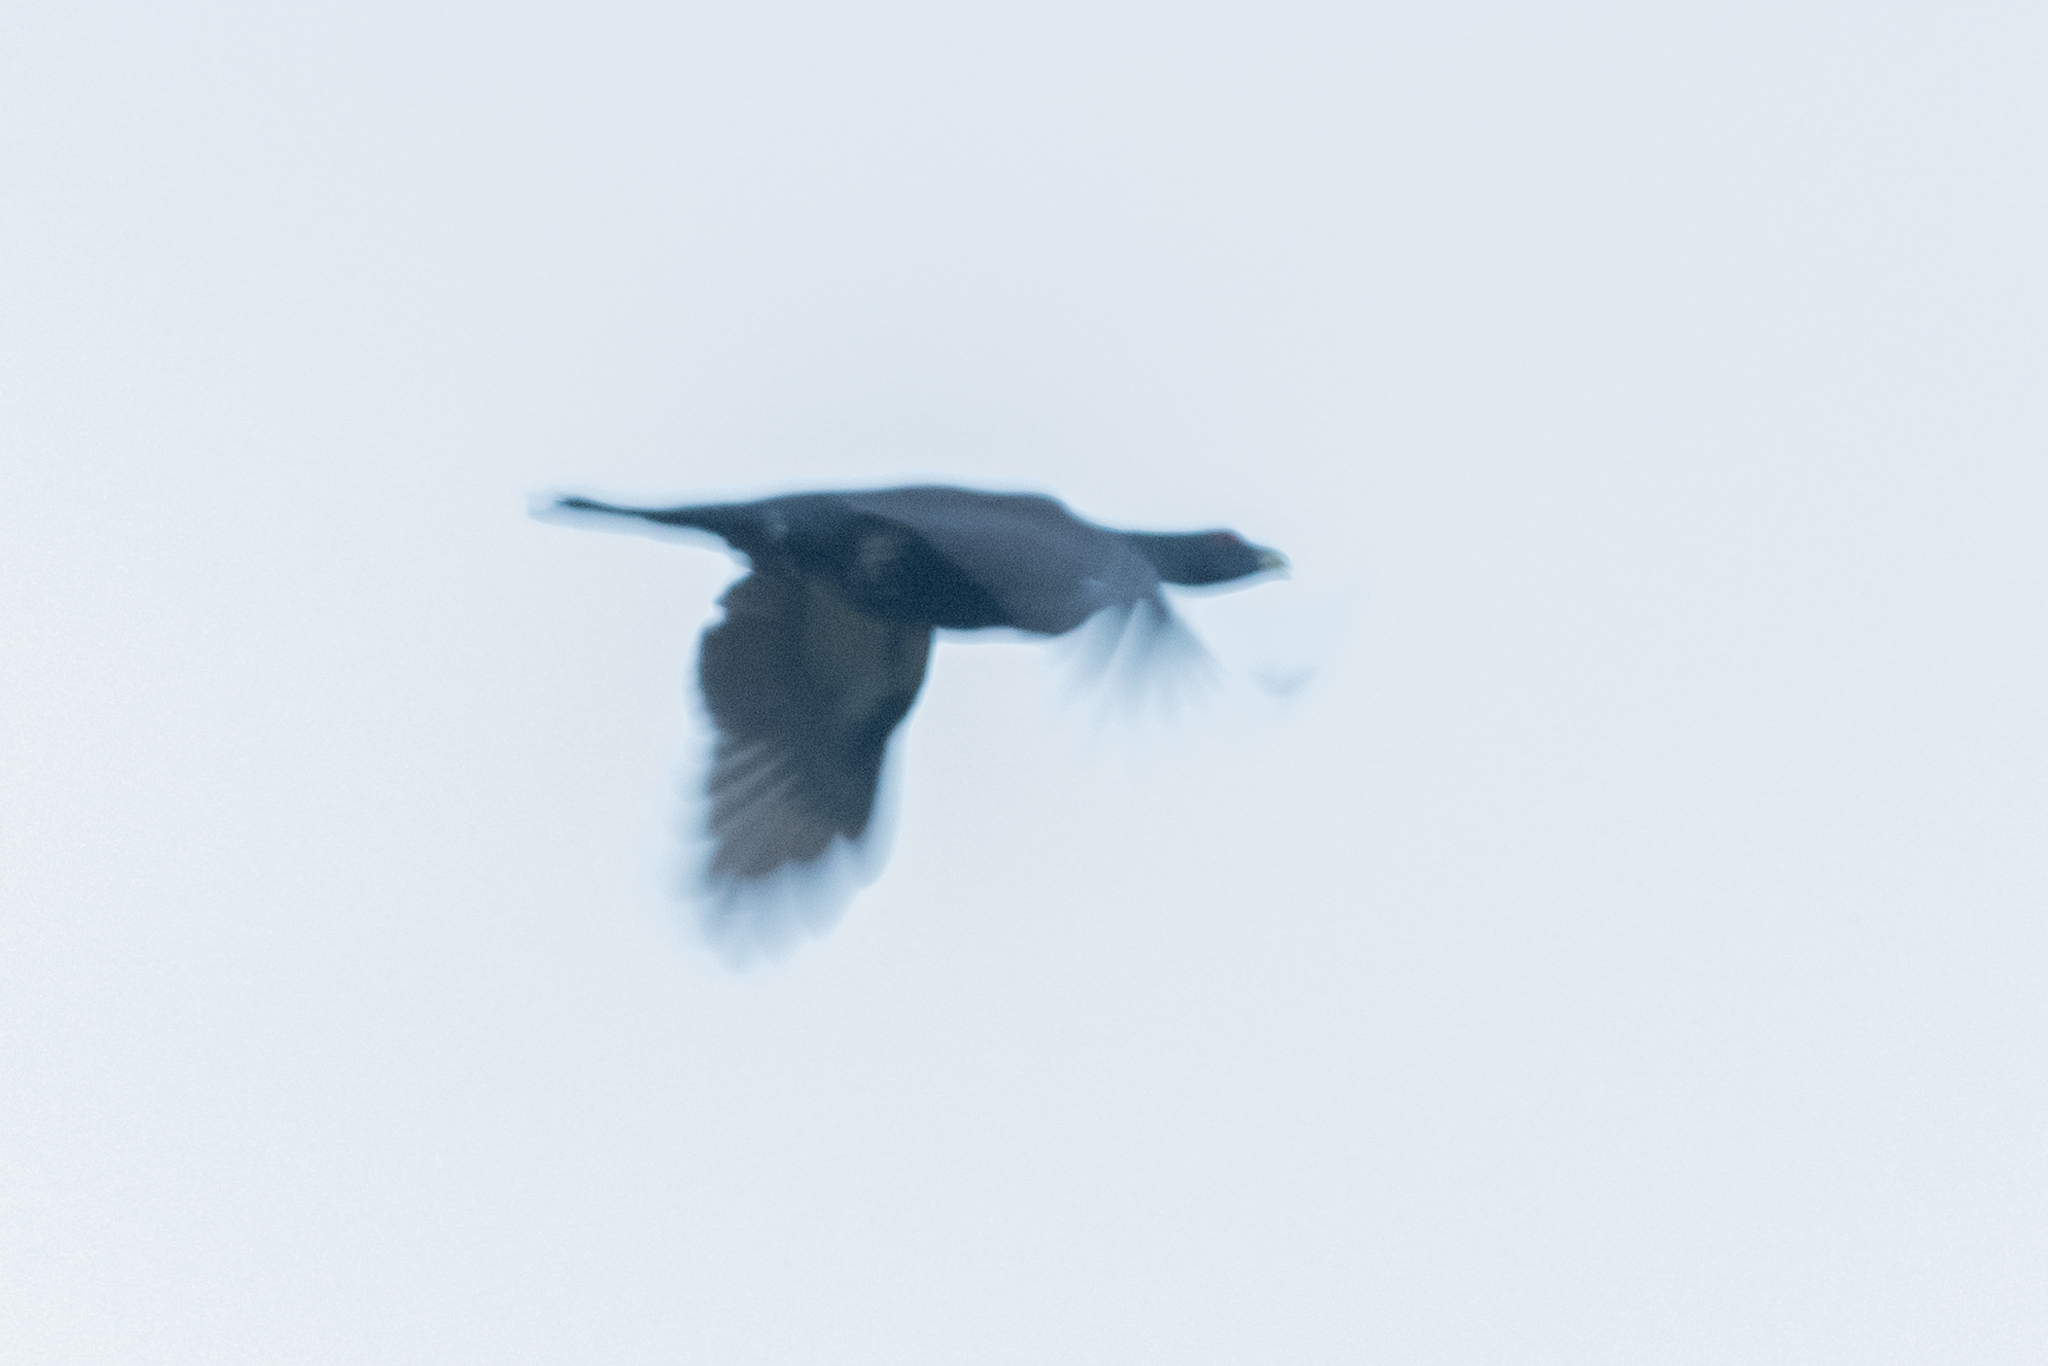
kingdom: Animalia
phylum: Chordata
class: Aves
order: Galliformes
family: Phasianidae
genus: Tetrao
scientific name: Tetrao urogallus
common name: Western capercaillie
